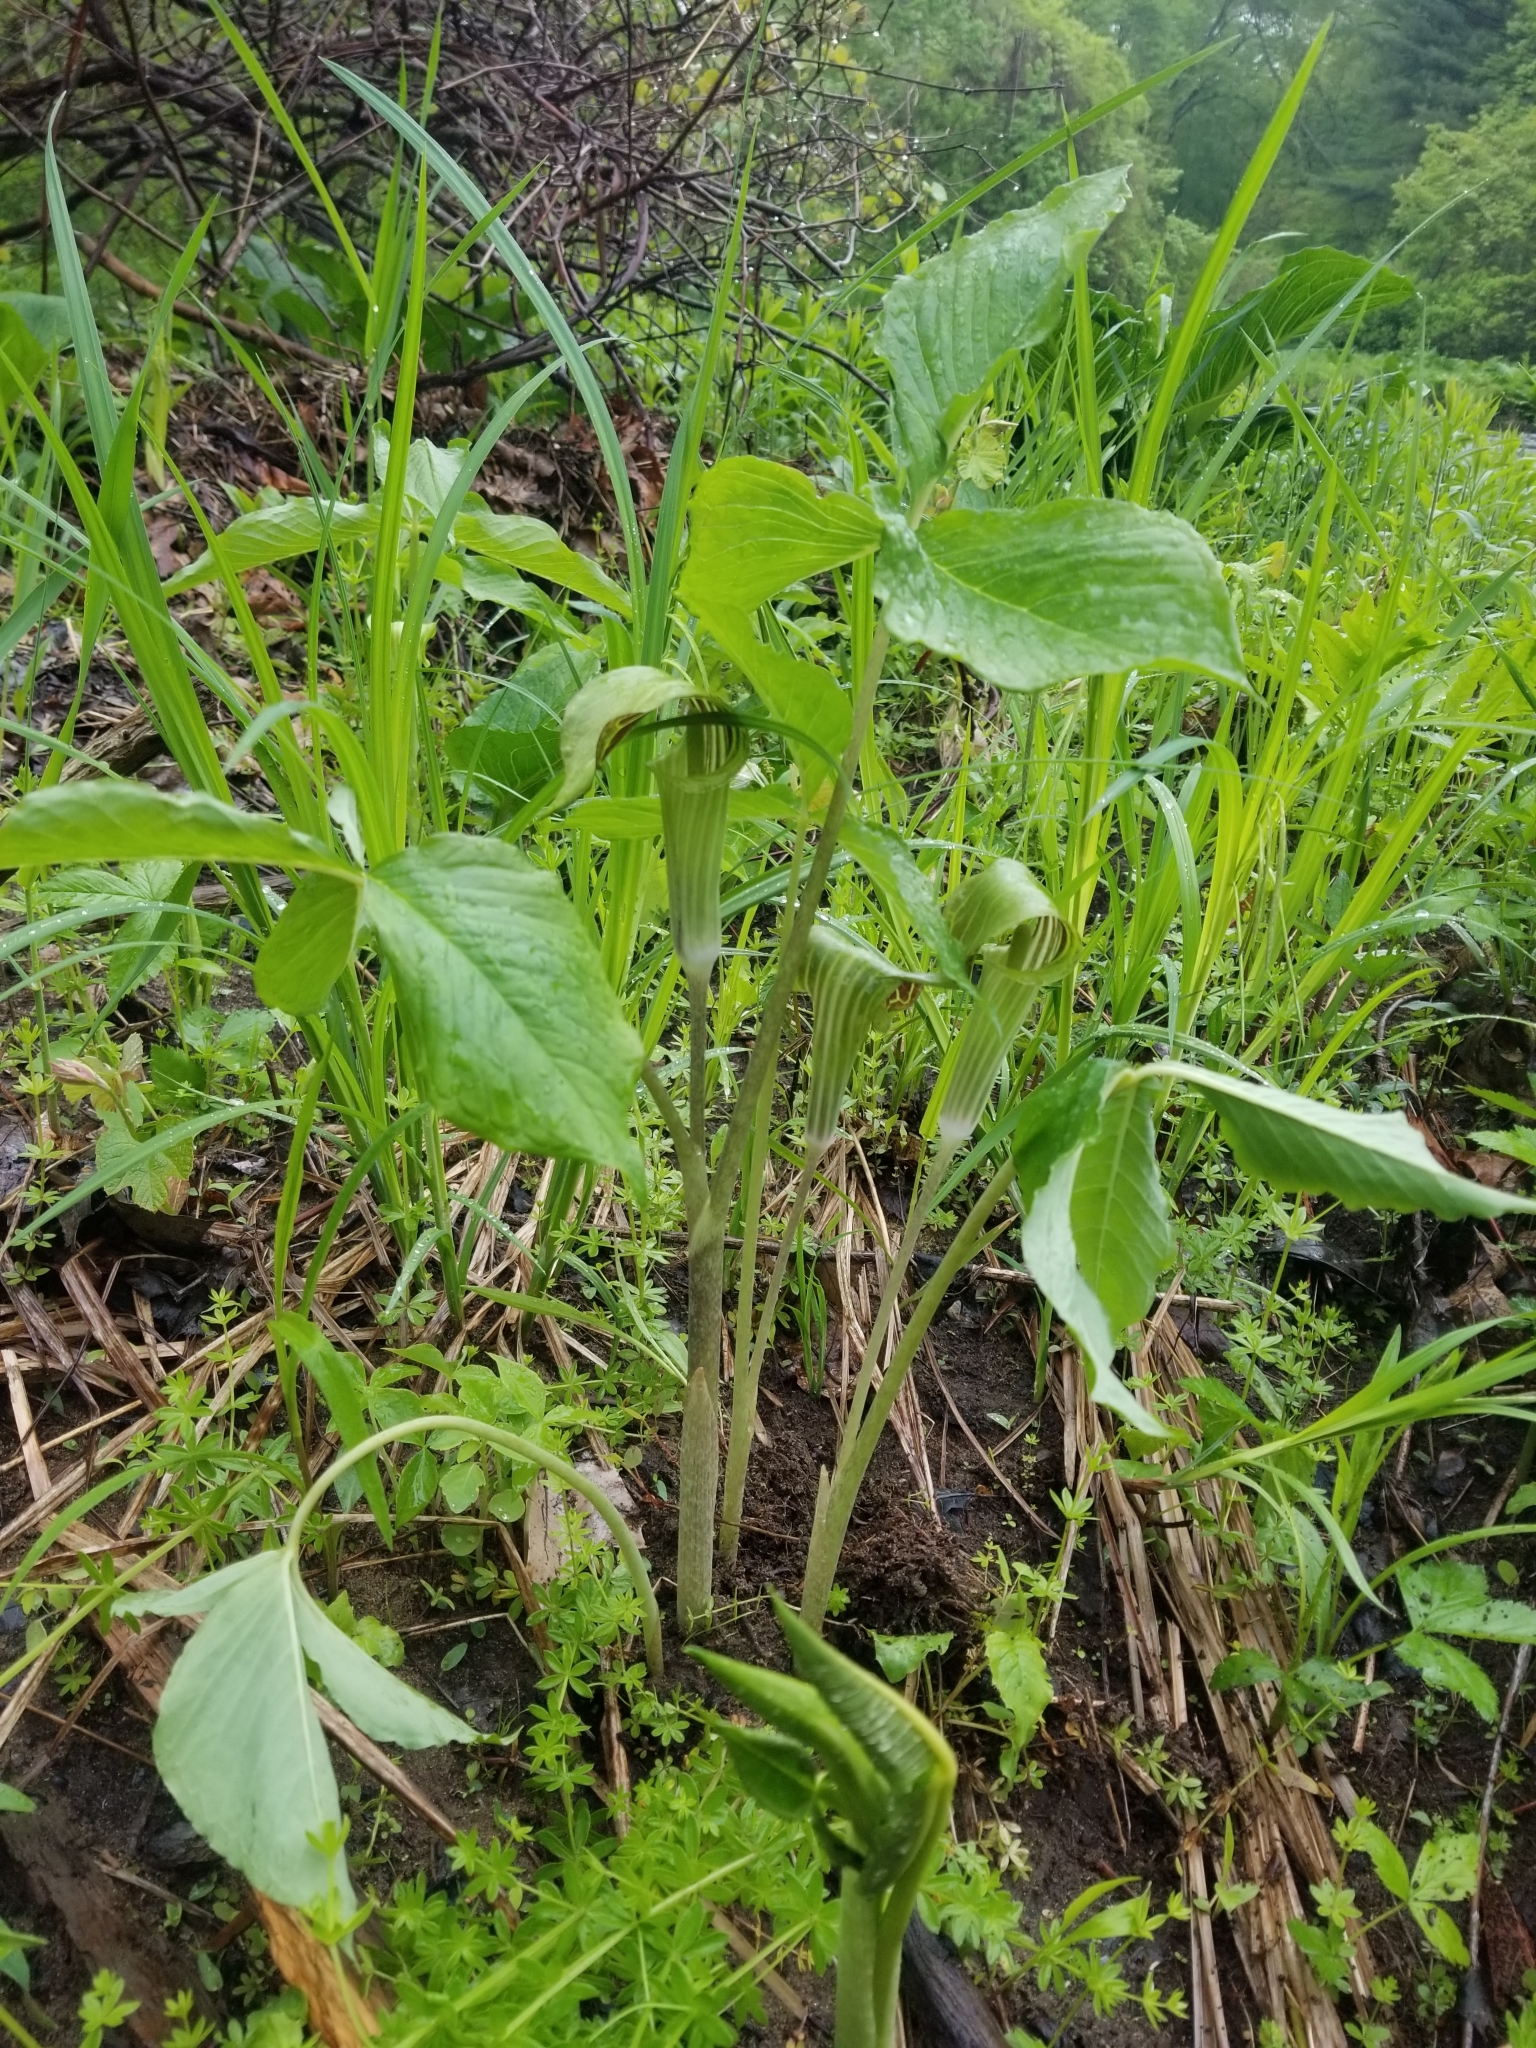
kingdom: Plantae
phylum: Tracheophyta
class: Liliopsida
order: Alismatales
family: Araceae
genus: Arisaema
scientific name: Arisaema triphyllum
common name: Jack-in-the-pulpit
